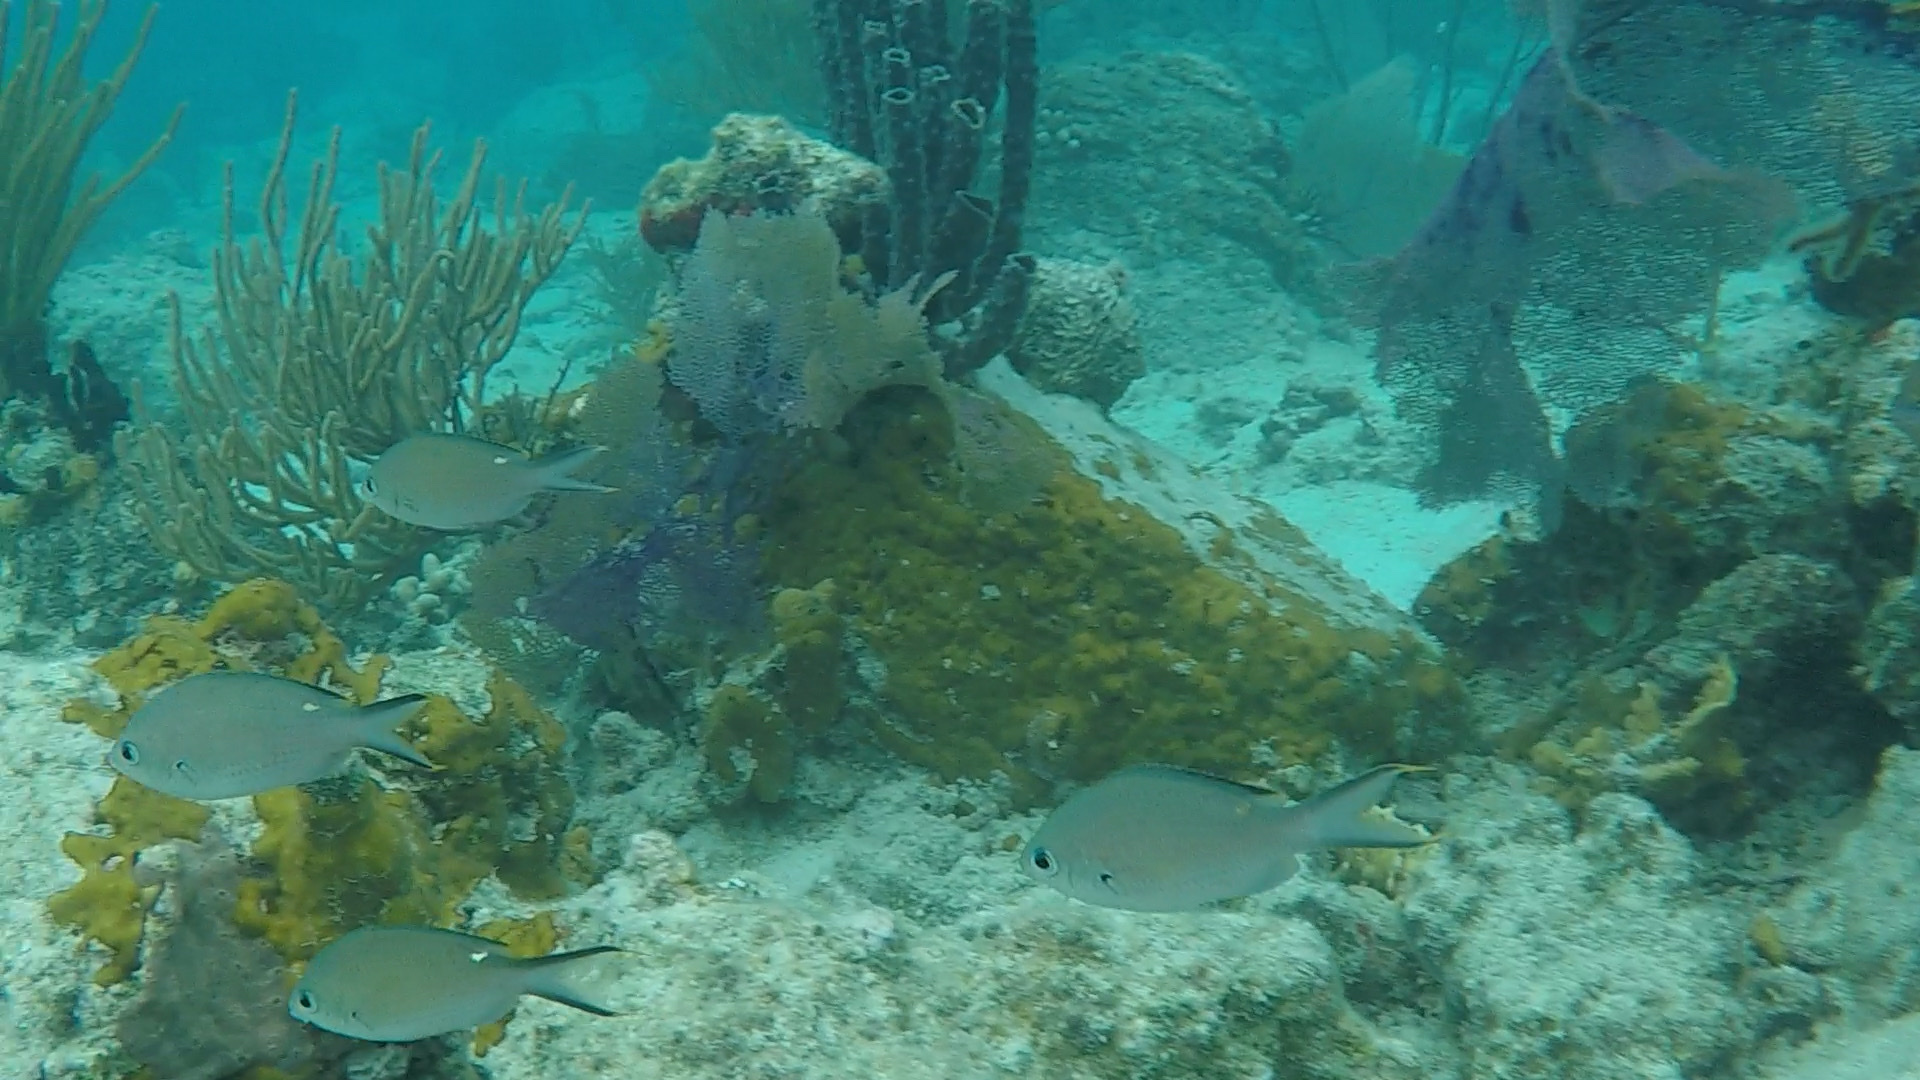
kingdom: Animalia
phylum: Chordata
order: Perciformes
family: Pomacentridae
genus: Chromis
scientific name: Chromis multilineata
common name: Brown chromis
